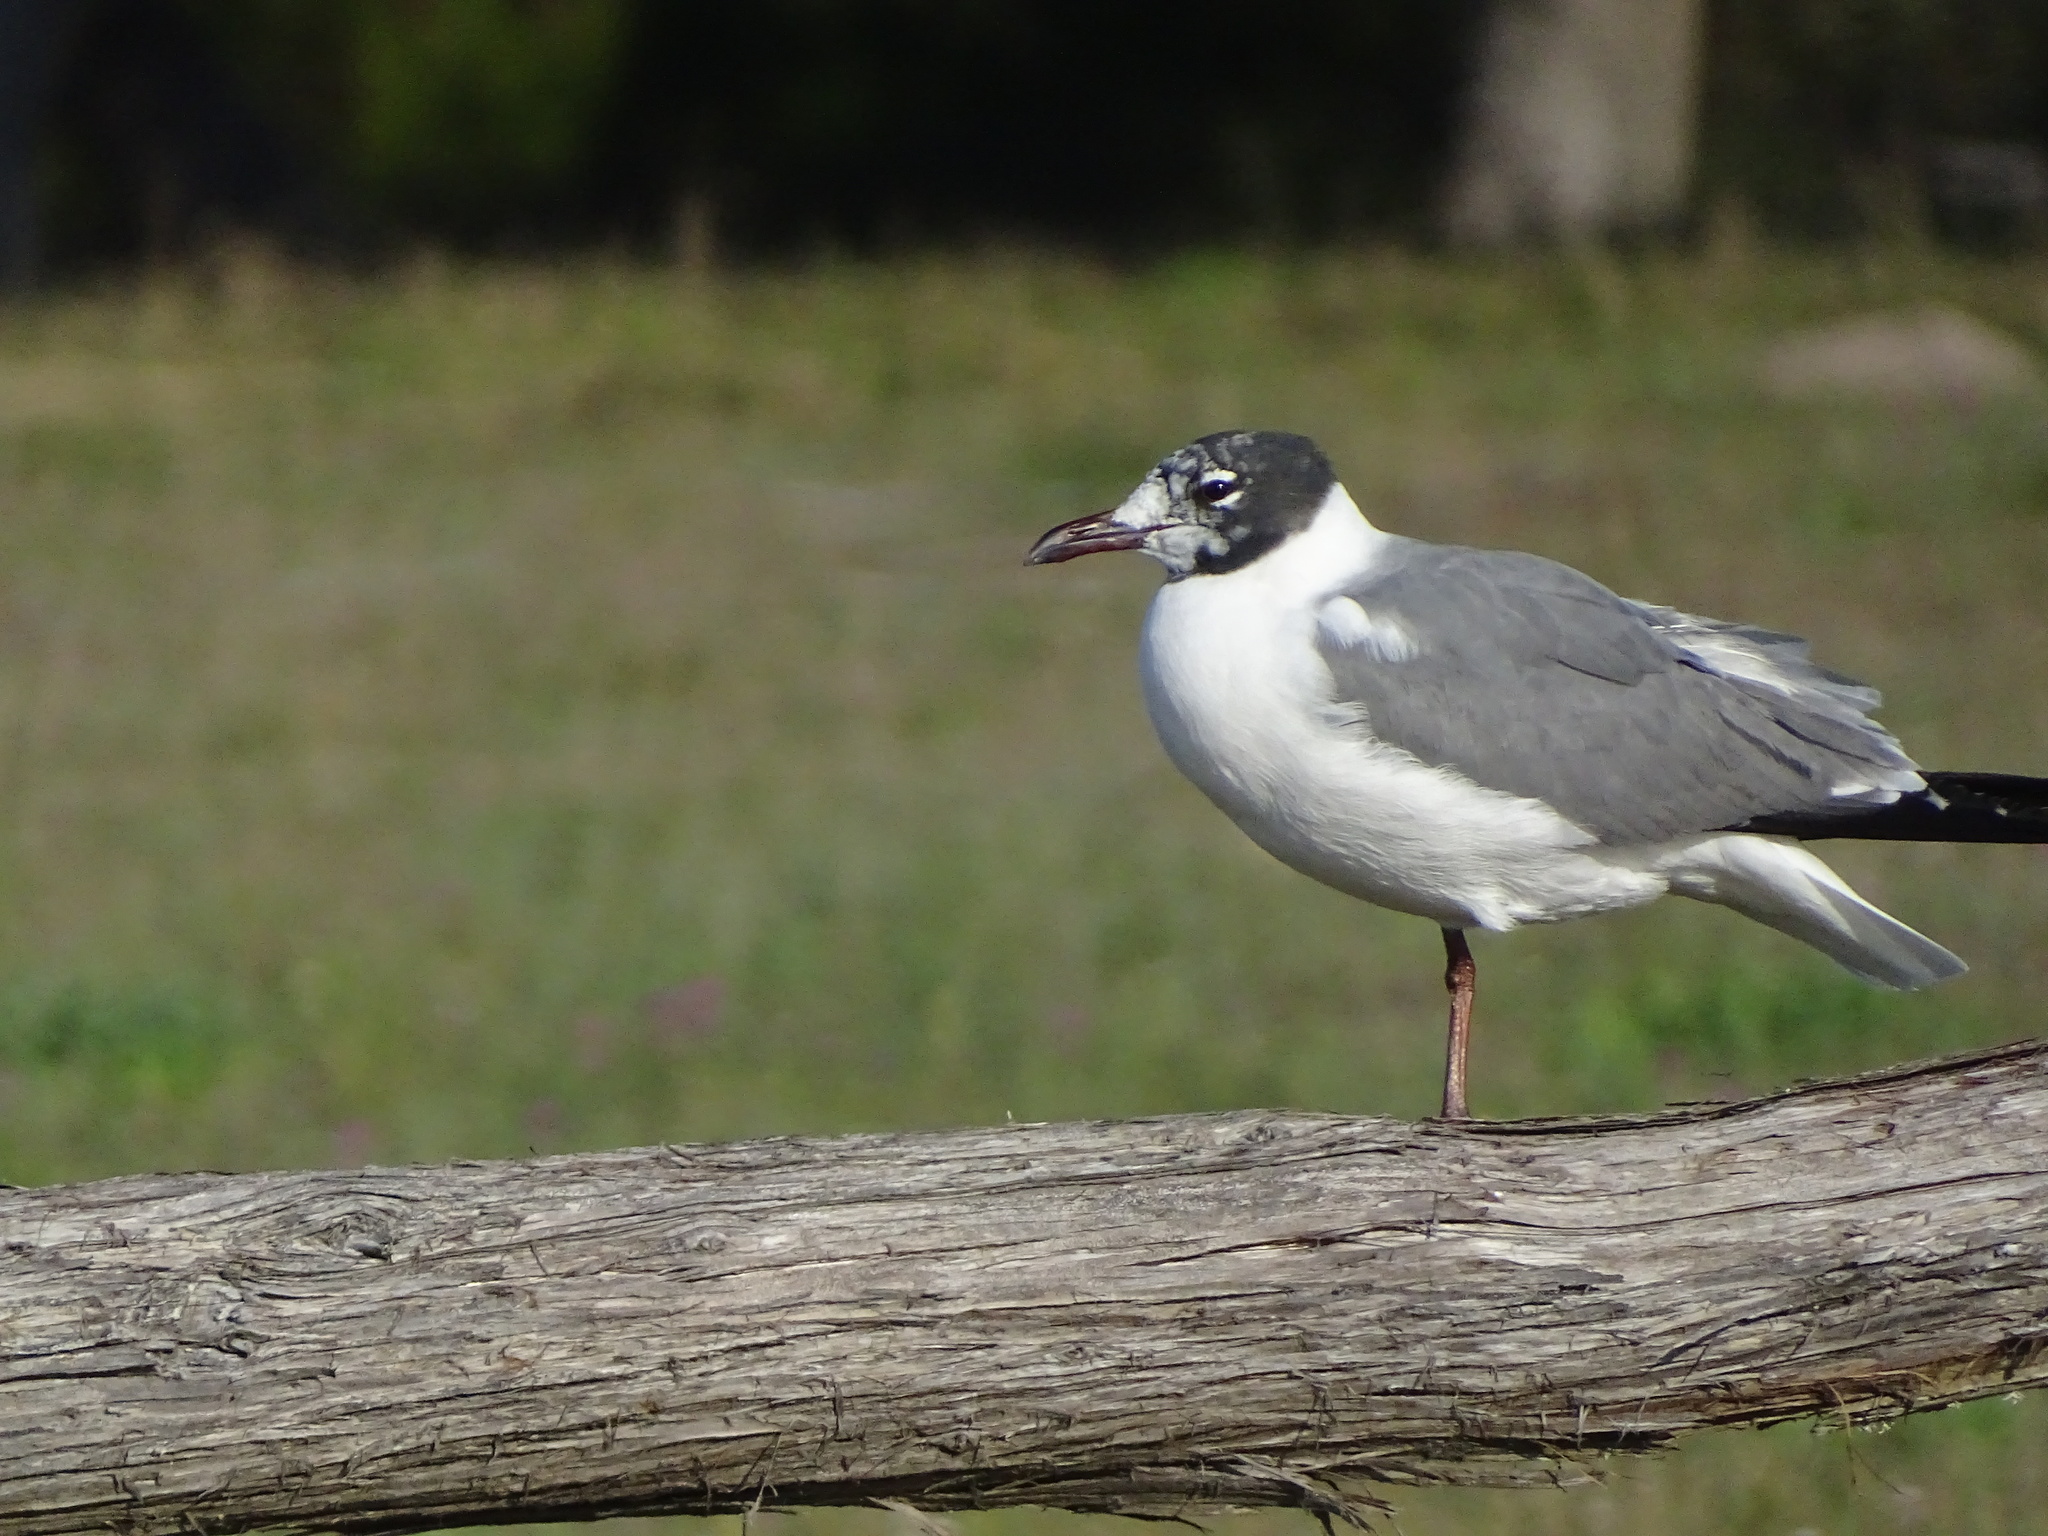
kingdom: Animalia
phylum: Chordata
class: Aves
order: Charadriiformes
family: Laridae
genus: Leucophaeus
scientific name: Leucophaeus atricilla
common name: Laughing gull
